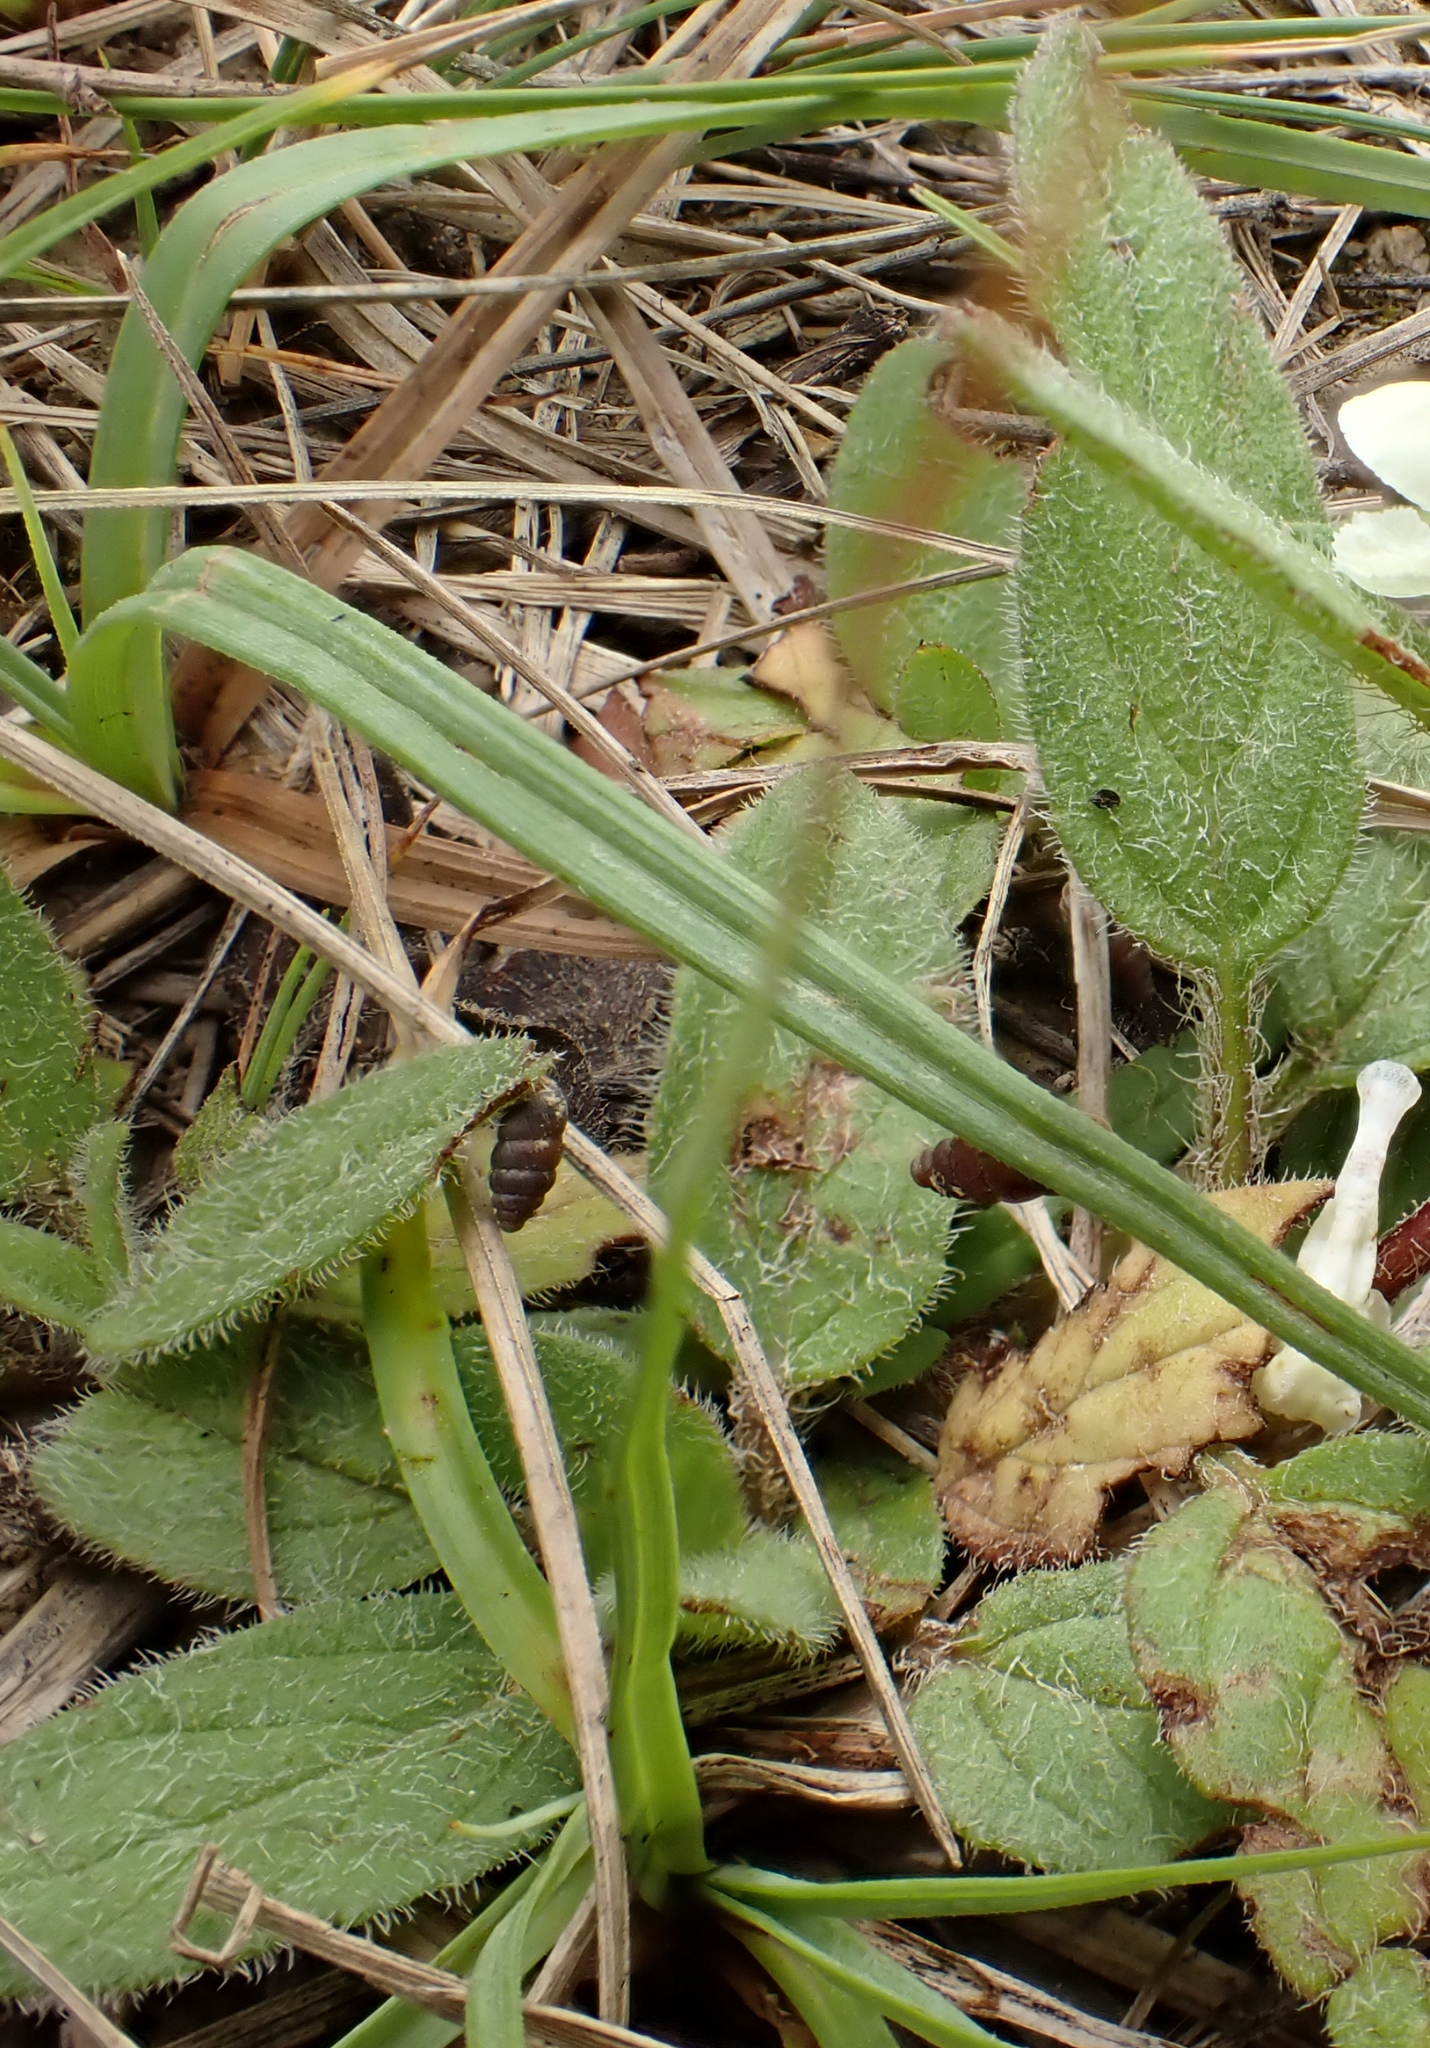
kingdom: Plantae
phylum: Tracheophyta
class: Magnoliopsida
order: Lamiales
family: Lamiaceae
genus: Prunella
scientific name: Prunella laciniata
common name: Cut-leaved selfheal
